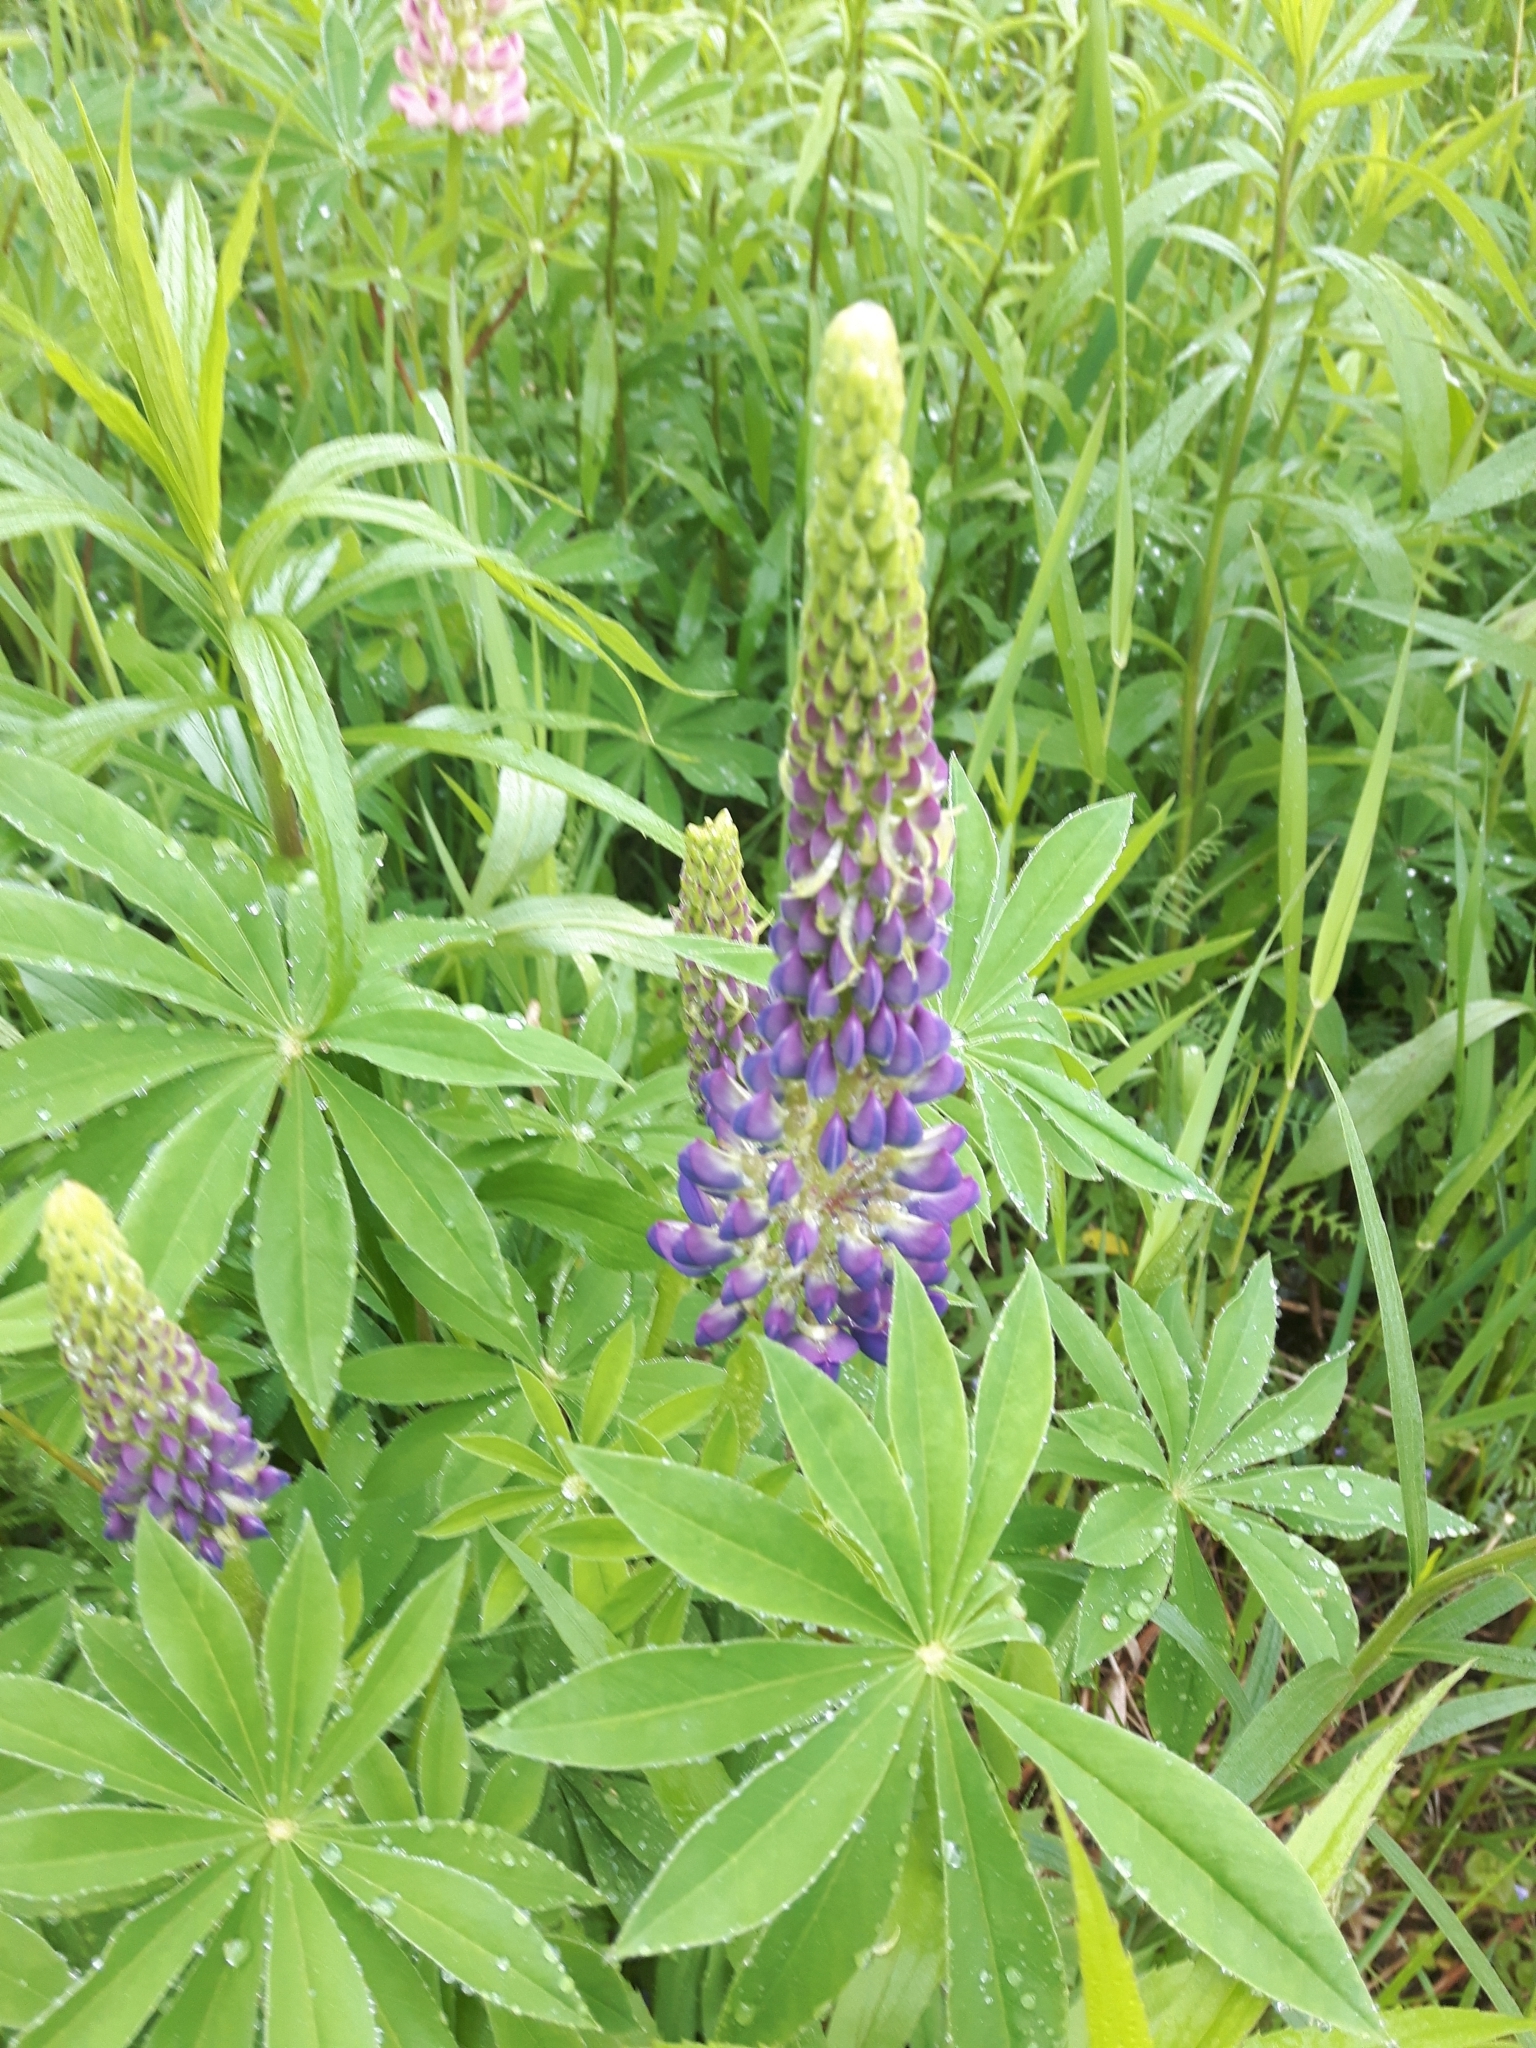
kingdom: Plantae
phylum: Tracheophyta
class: Magnoliopsida
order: Fabales
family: Fabaceae
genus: Lupinus
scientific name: Lupinus polyphyllus
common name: Garden lupin
